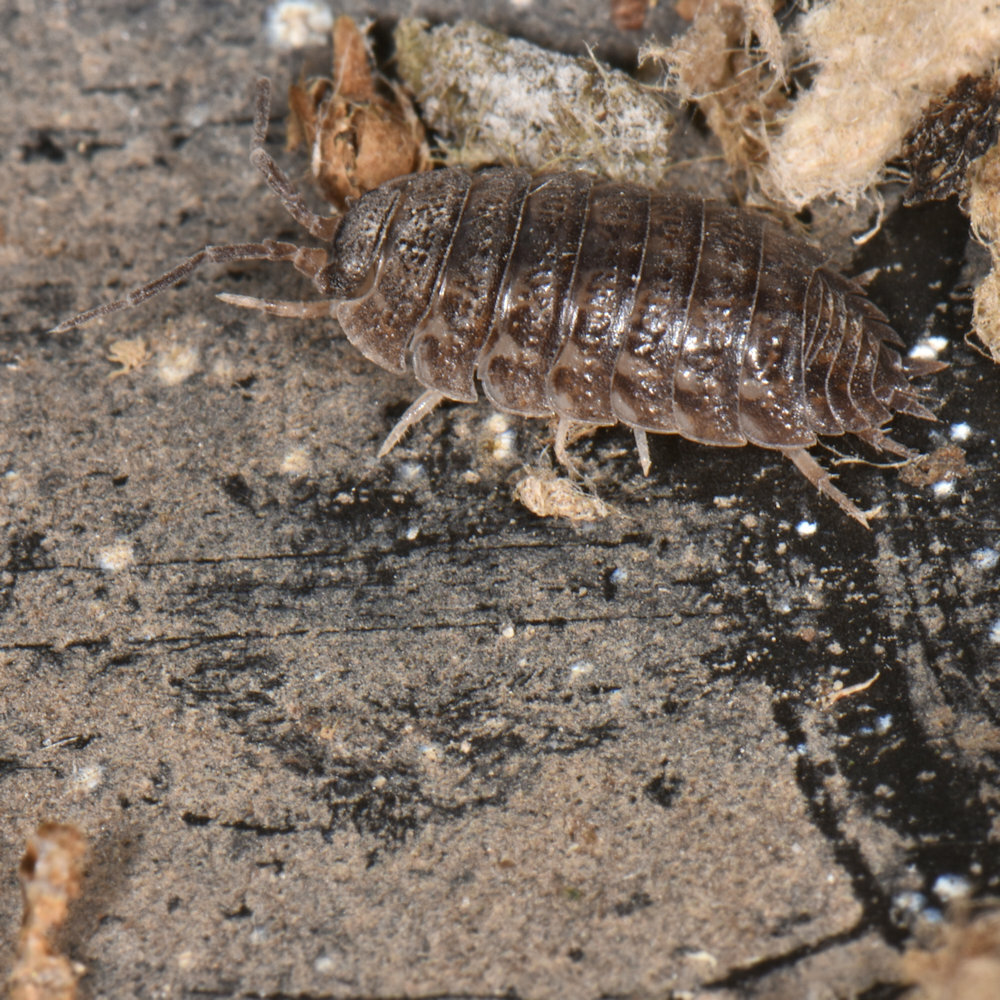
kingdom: Animalia
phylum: Arthropoda
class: Malacostraca
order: Isopoda
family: Trachelipodidae
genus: Trachelipus
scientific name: Trachelipus rathkii
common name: Isopod
